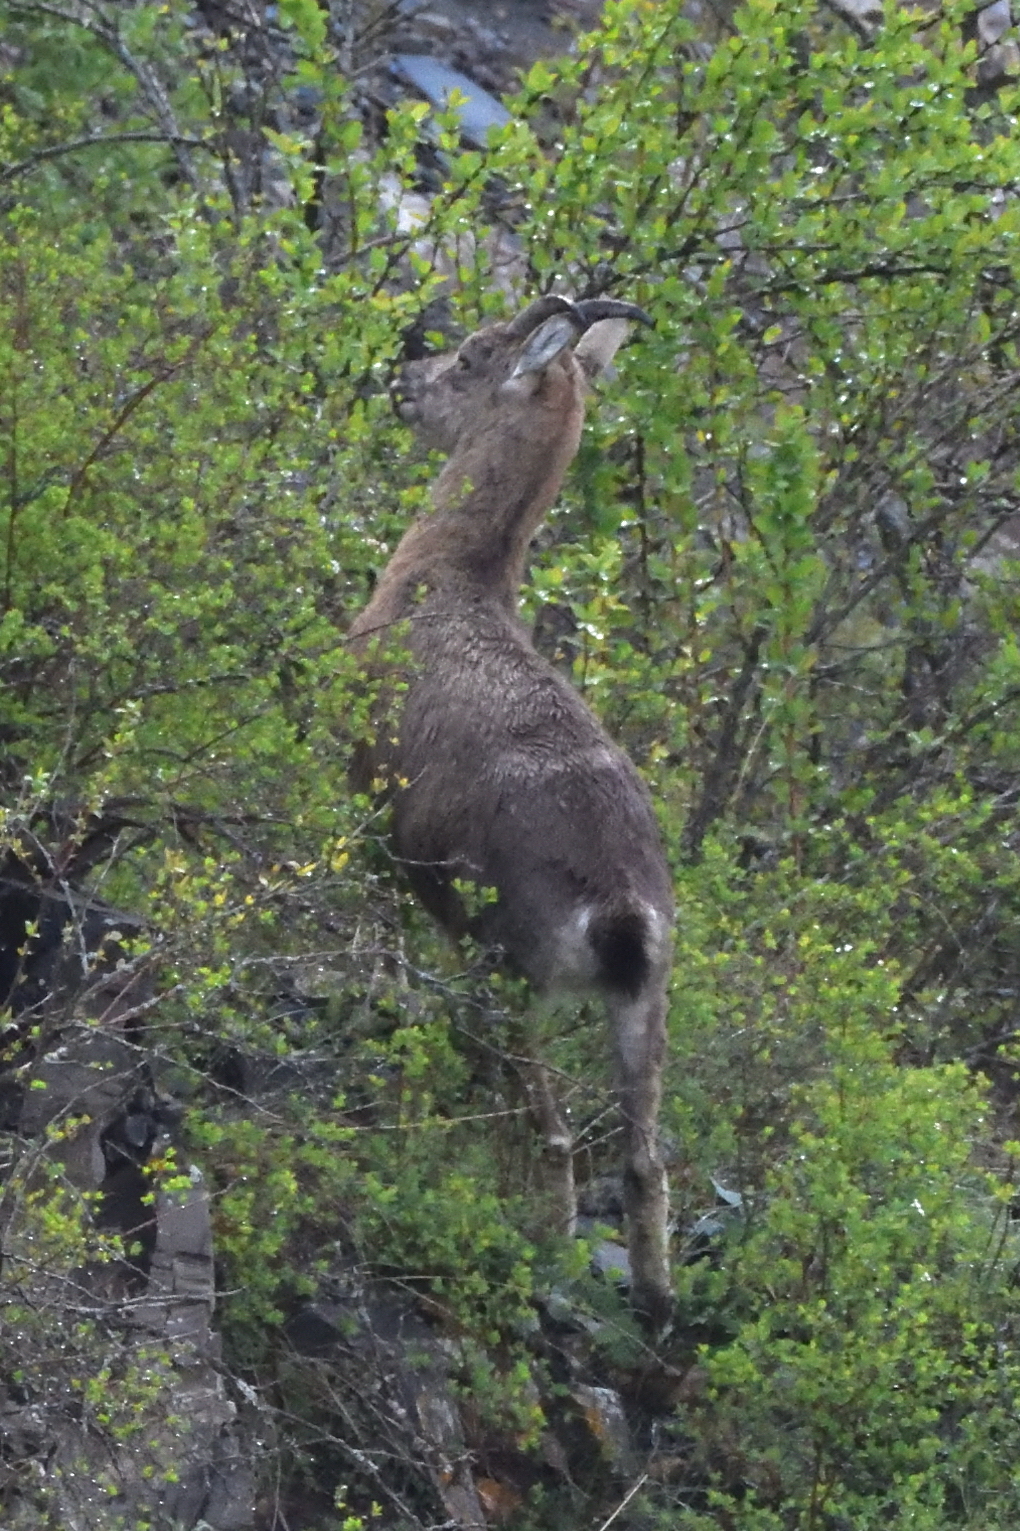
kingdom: Animalia
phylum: Chordata
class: Mammalia
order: Artiodactyla
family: Bovidae
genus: Capra
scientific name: Capra caucasica
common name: Tur
